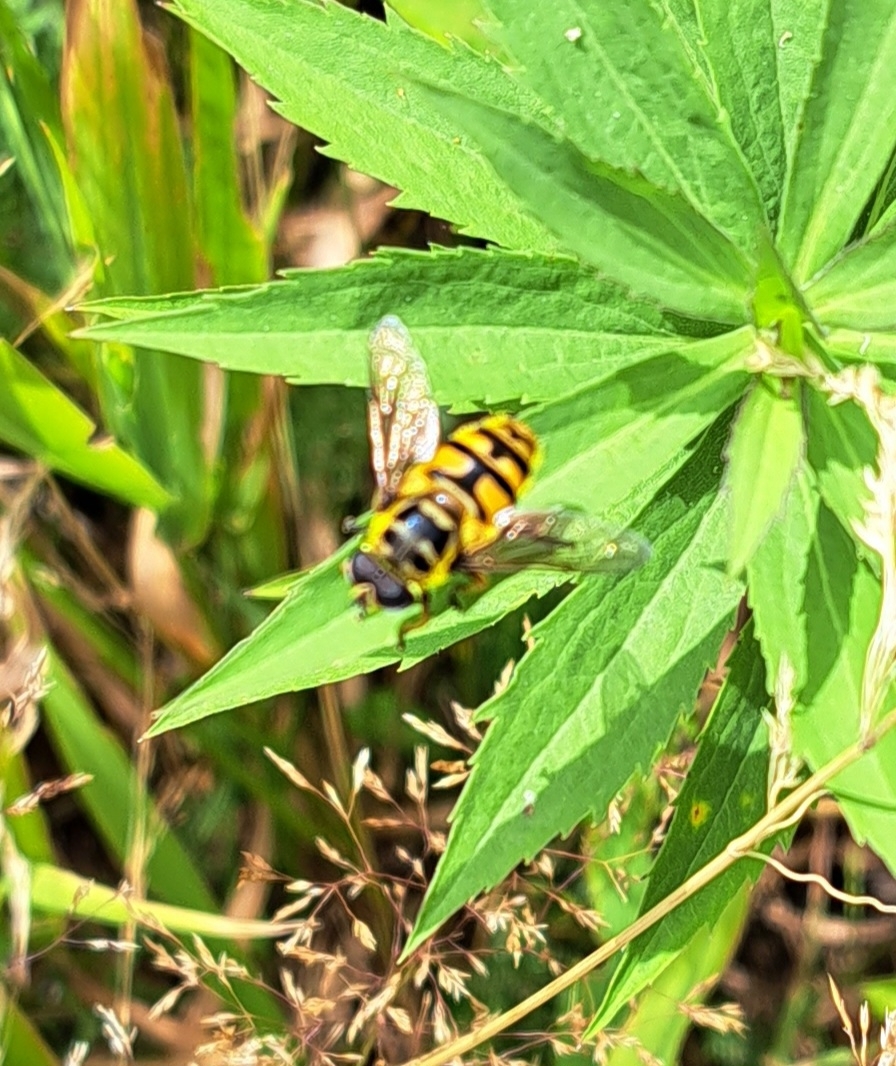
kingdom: Animalia
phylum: Arthropoda
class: Insecta
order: Diptera
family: Syrphidae
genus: Myathropa
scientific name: Myathropa florea
